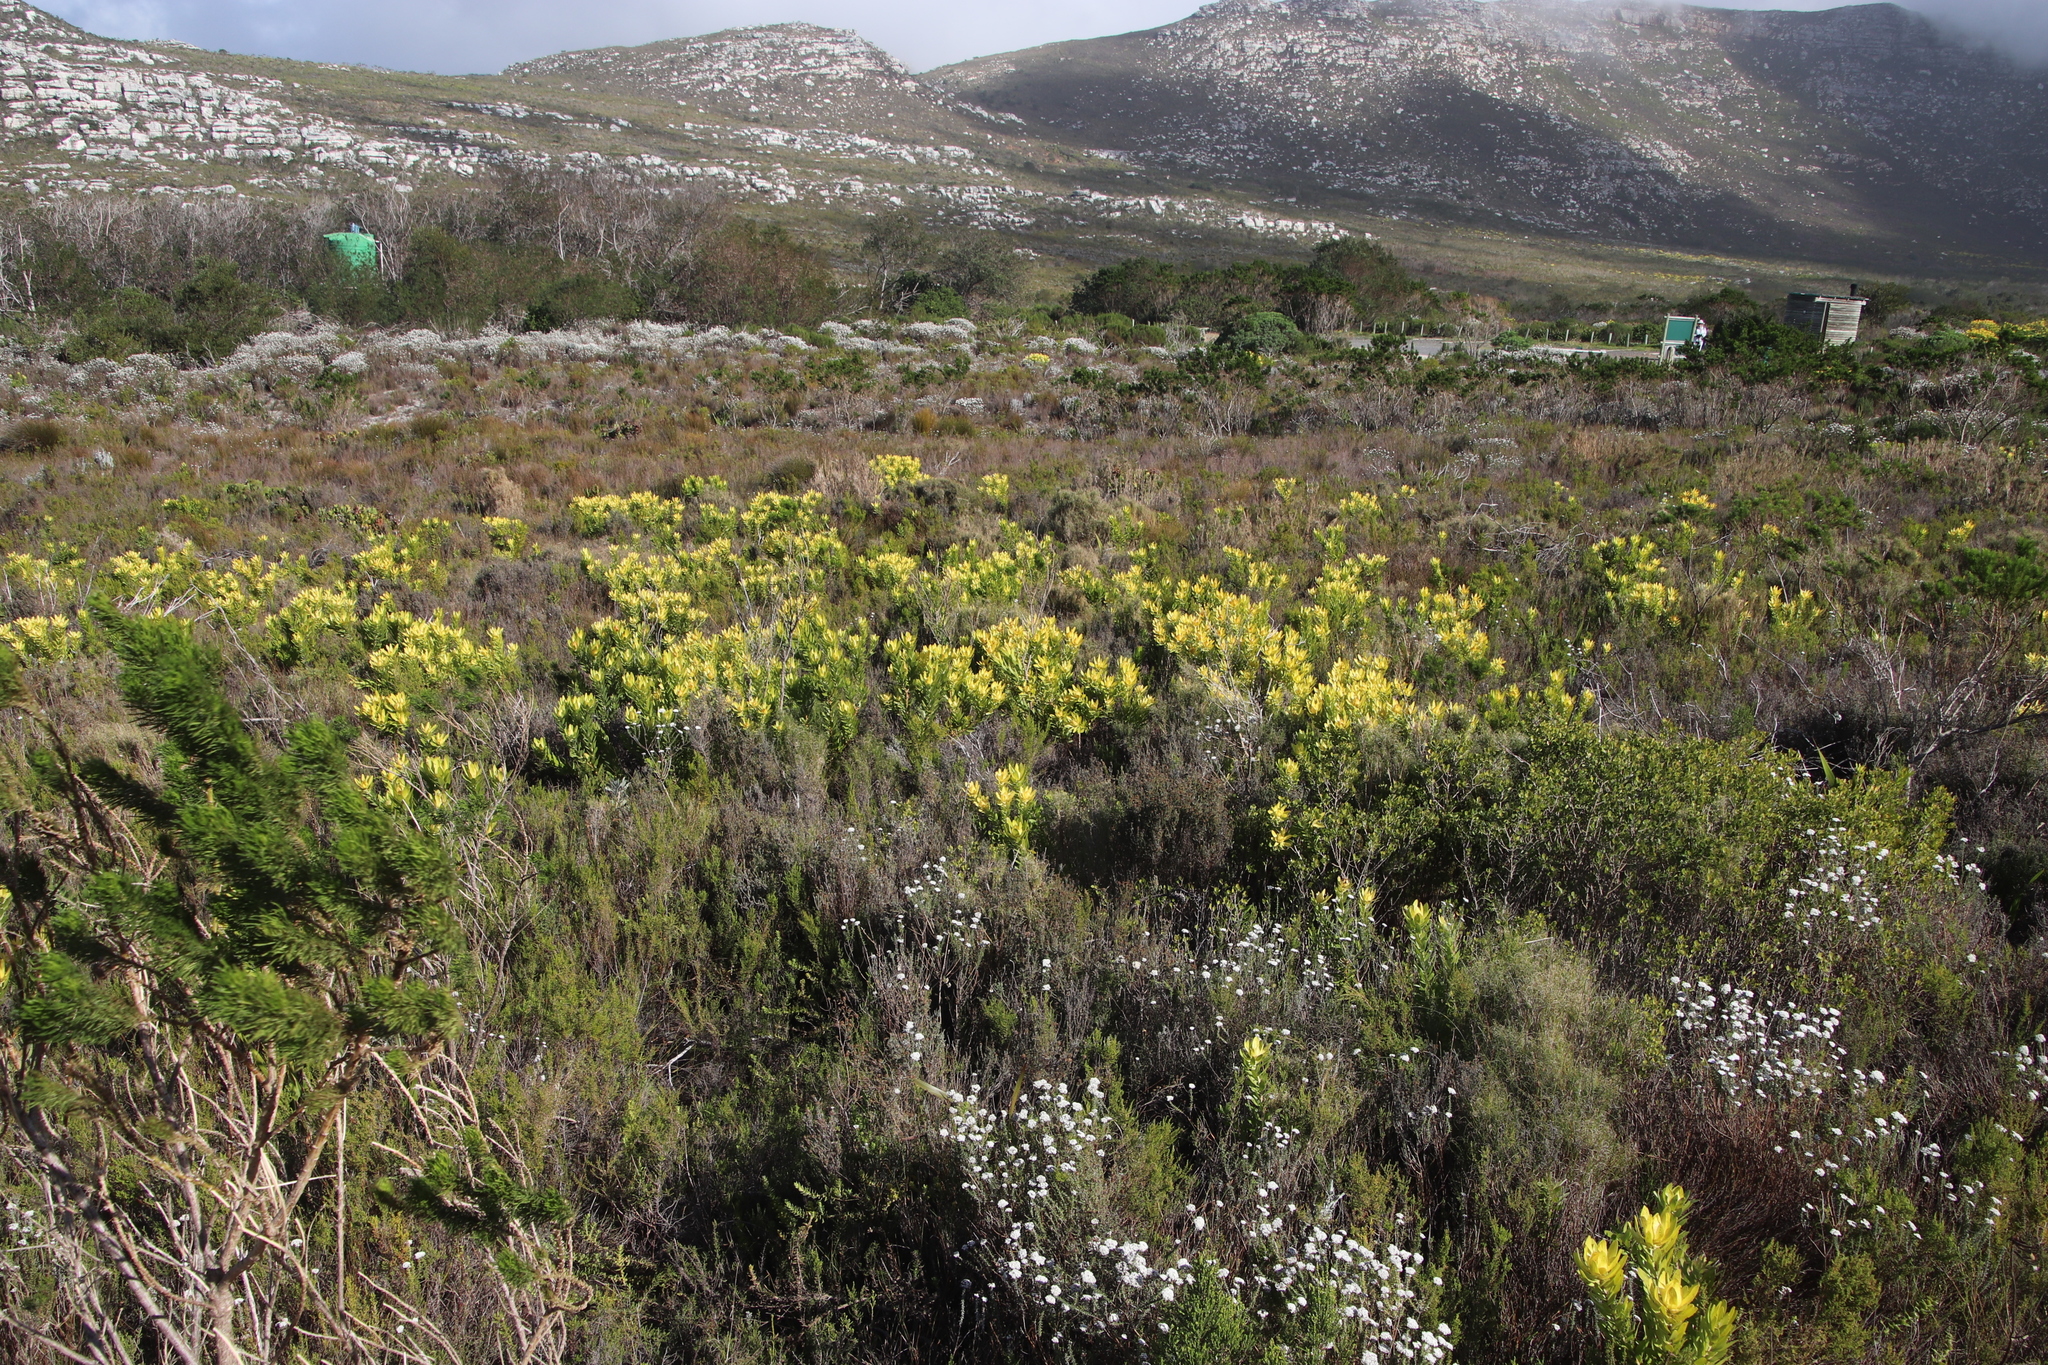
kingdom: Plantae
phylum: Tracheophyta
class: Magnoliopsida
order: Proteales
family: Proteaceae
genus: Leucadendron
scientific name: Leucadendron laureolum
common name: Golden sunshinebush
